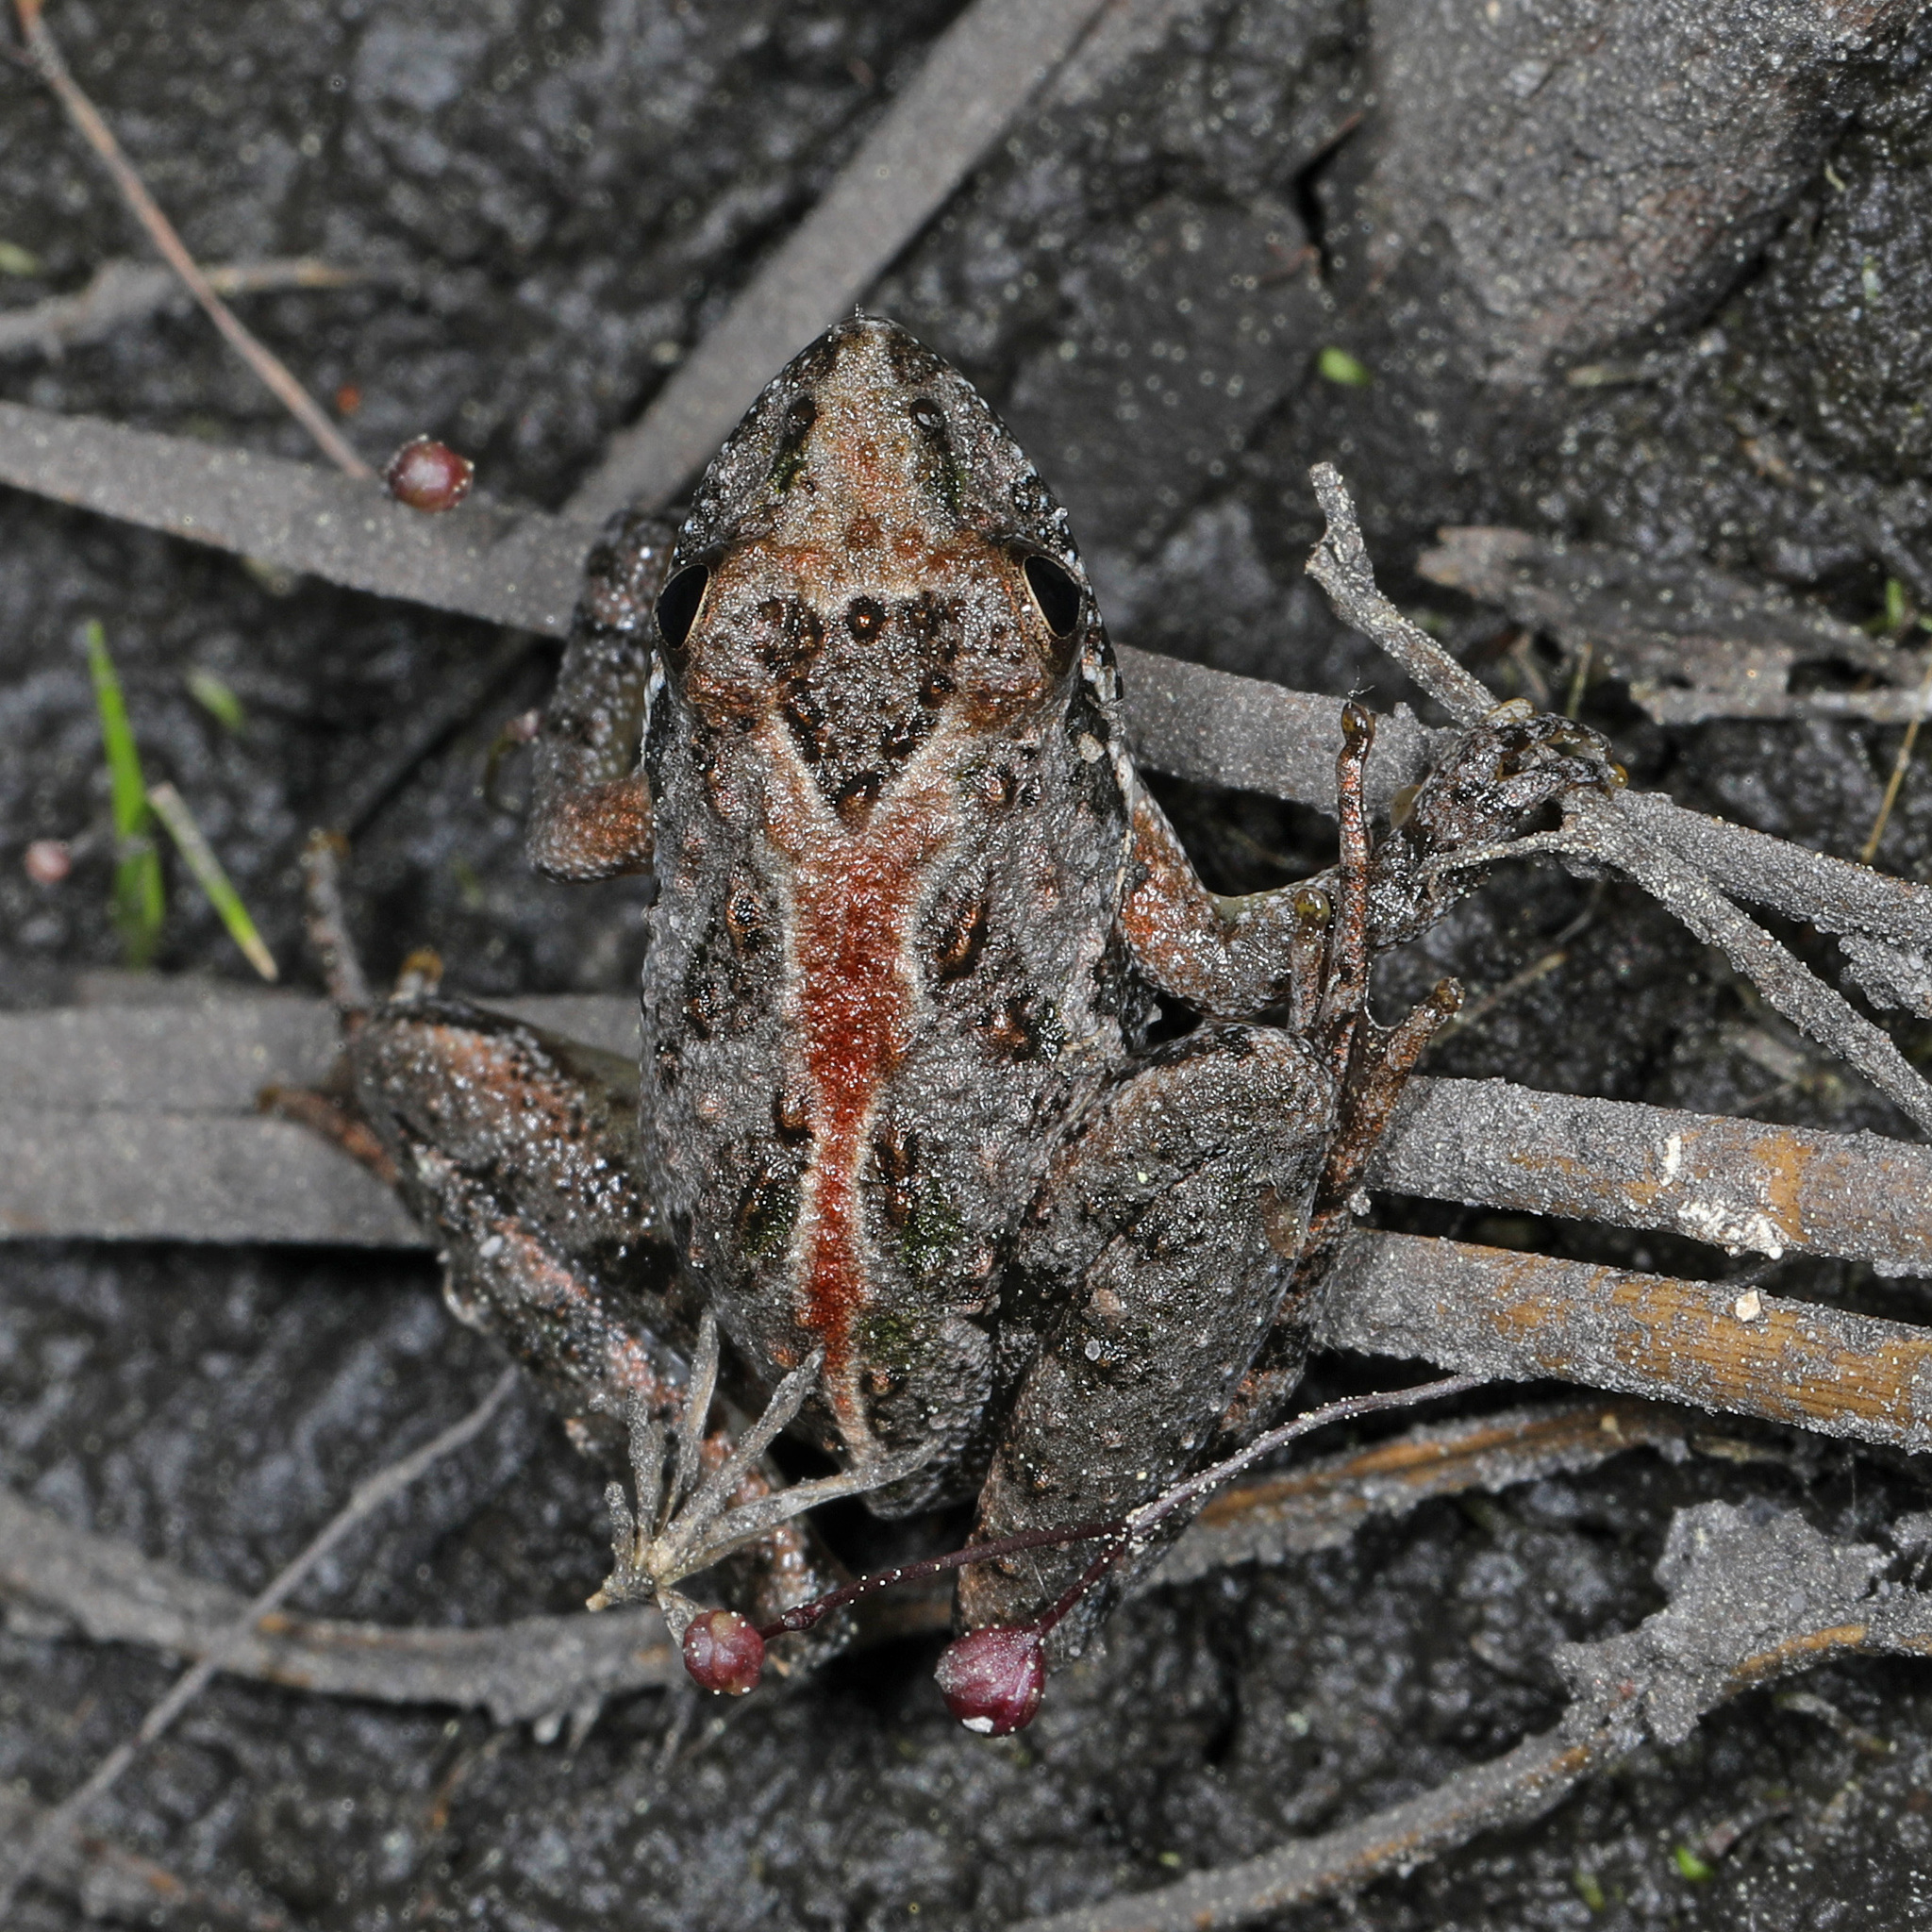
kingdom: Animalia
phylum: Chordata
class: Amphibia
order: Anura
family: Hylidae
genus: Acris
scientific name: Acris gryllus
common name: Southern cricket frog
